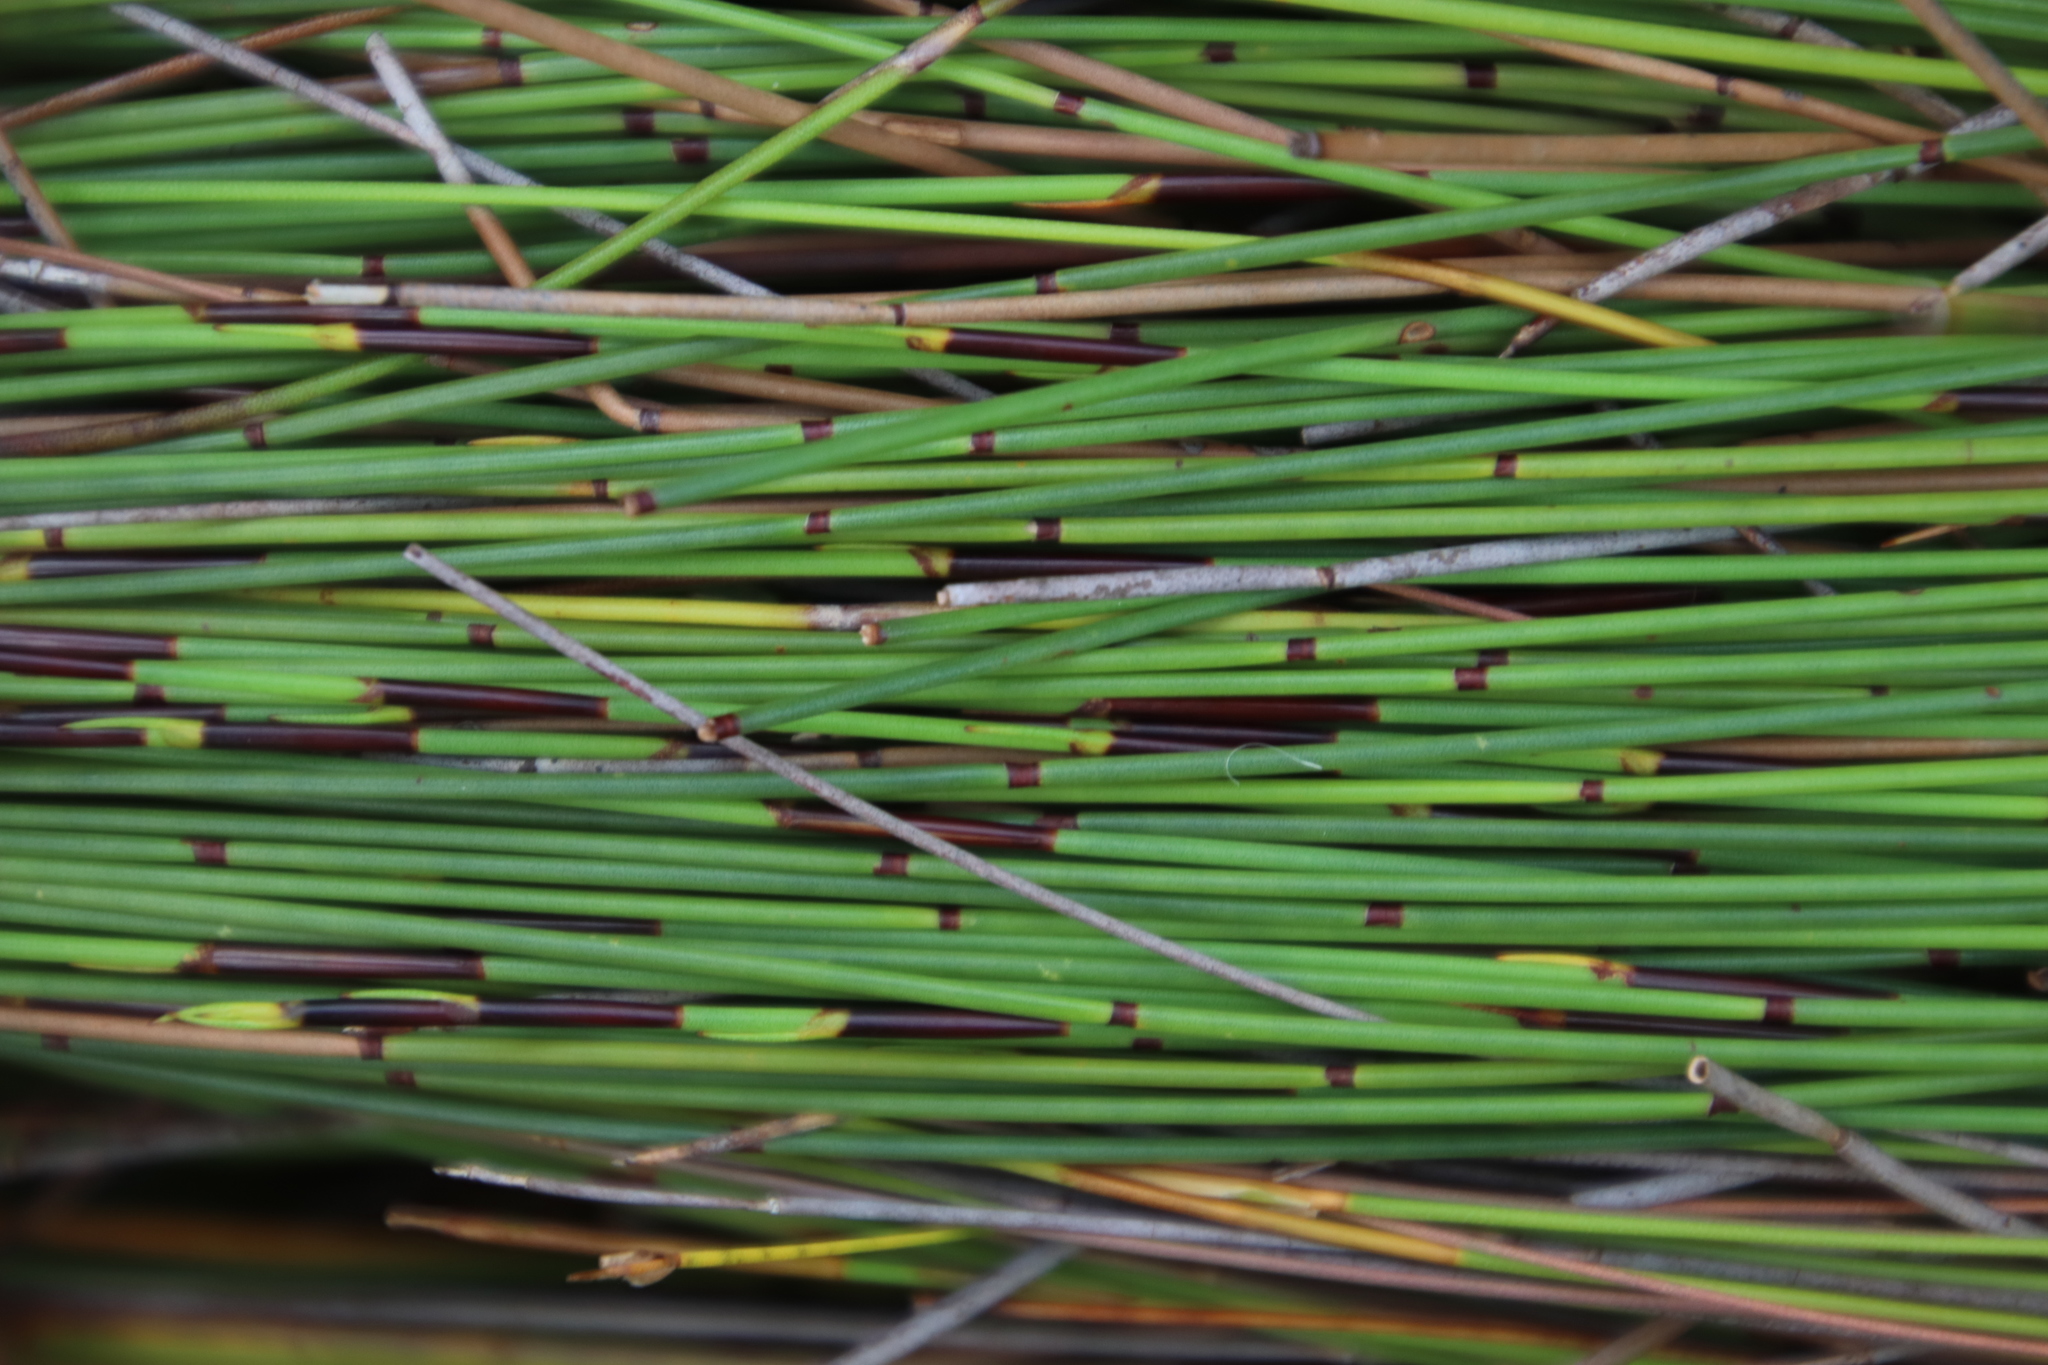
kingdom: Plantae
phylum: Tracheophyta
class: Liliopsida
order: Poales
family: Restionaceae
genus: Elegia
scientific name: Elegia nuda
